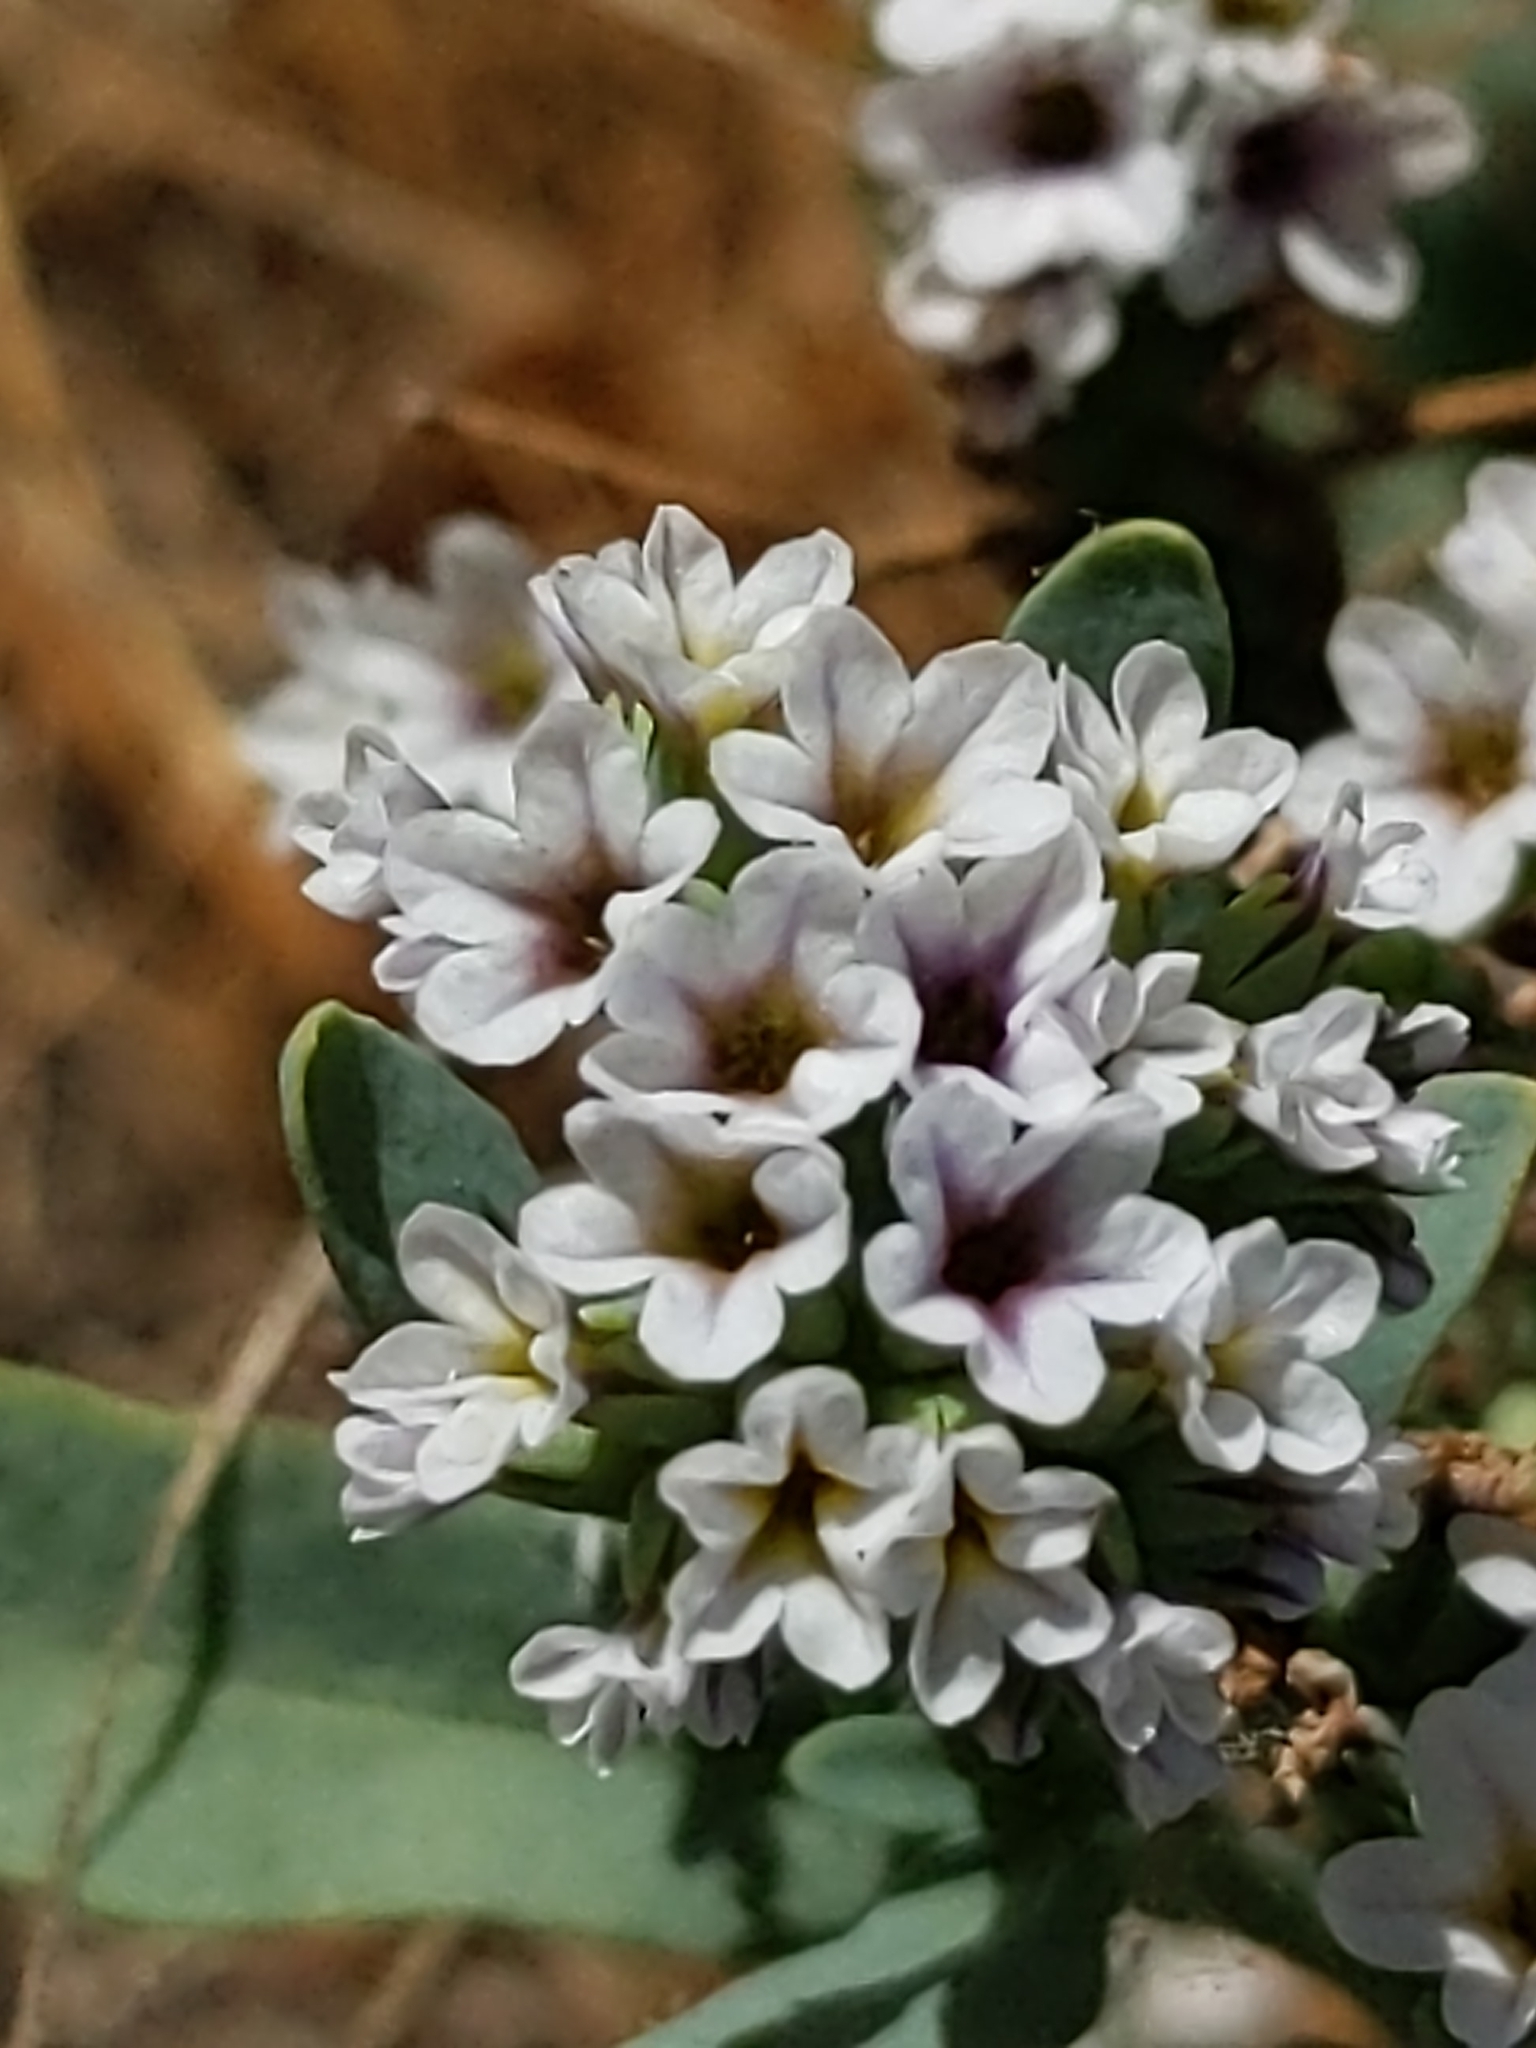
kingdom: Plantae
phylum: Tracheophyta
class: Magnoliopsida
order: Boraginales
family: Heliotropiaceae
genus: Heliotropium
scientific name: Heliotropium curassavicum
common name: Seaside heliotrope
